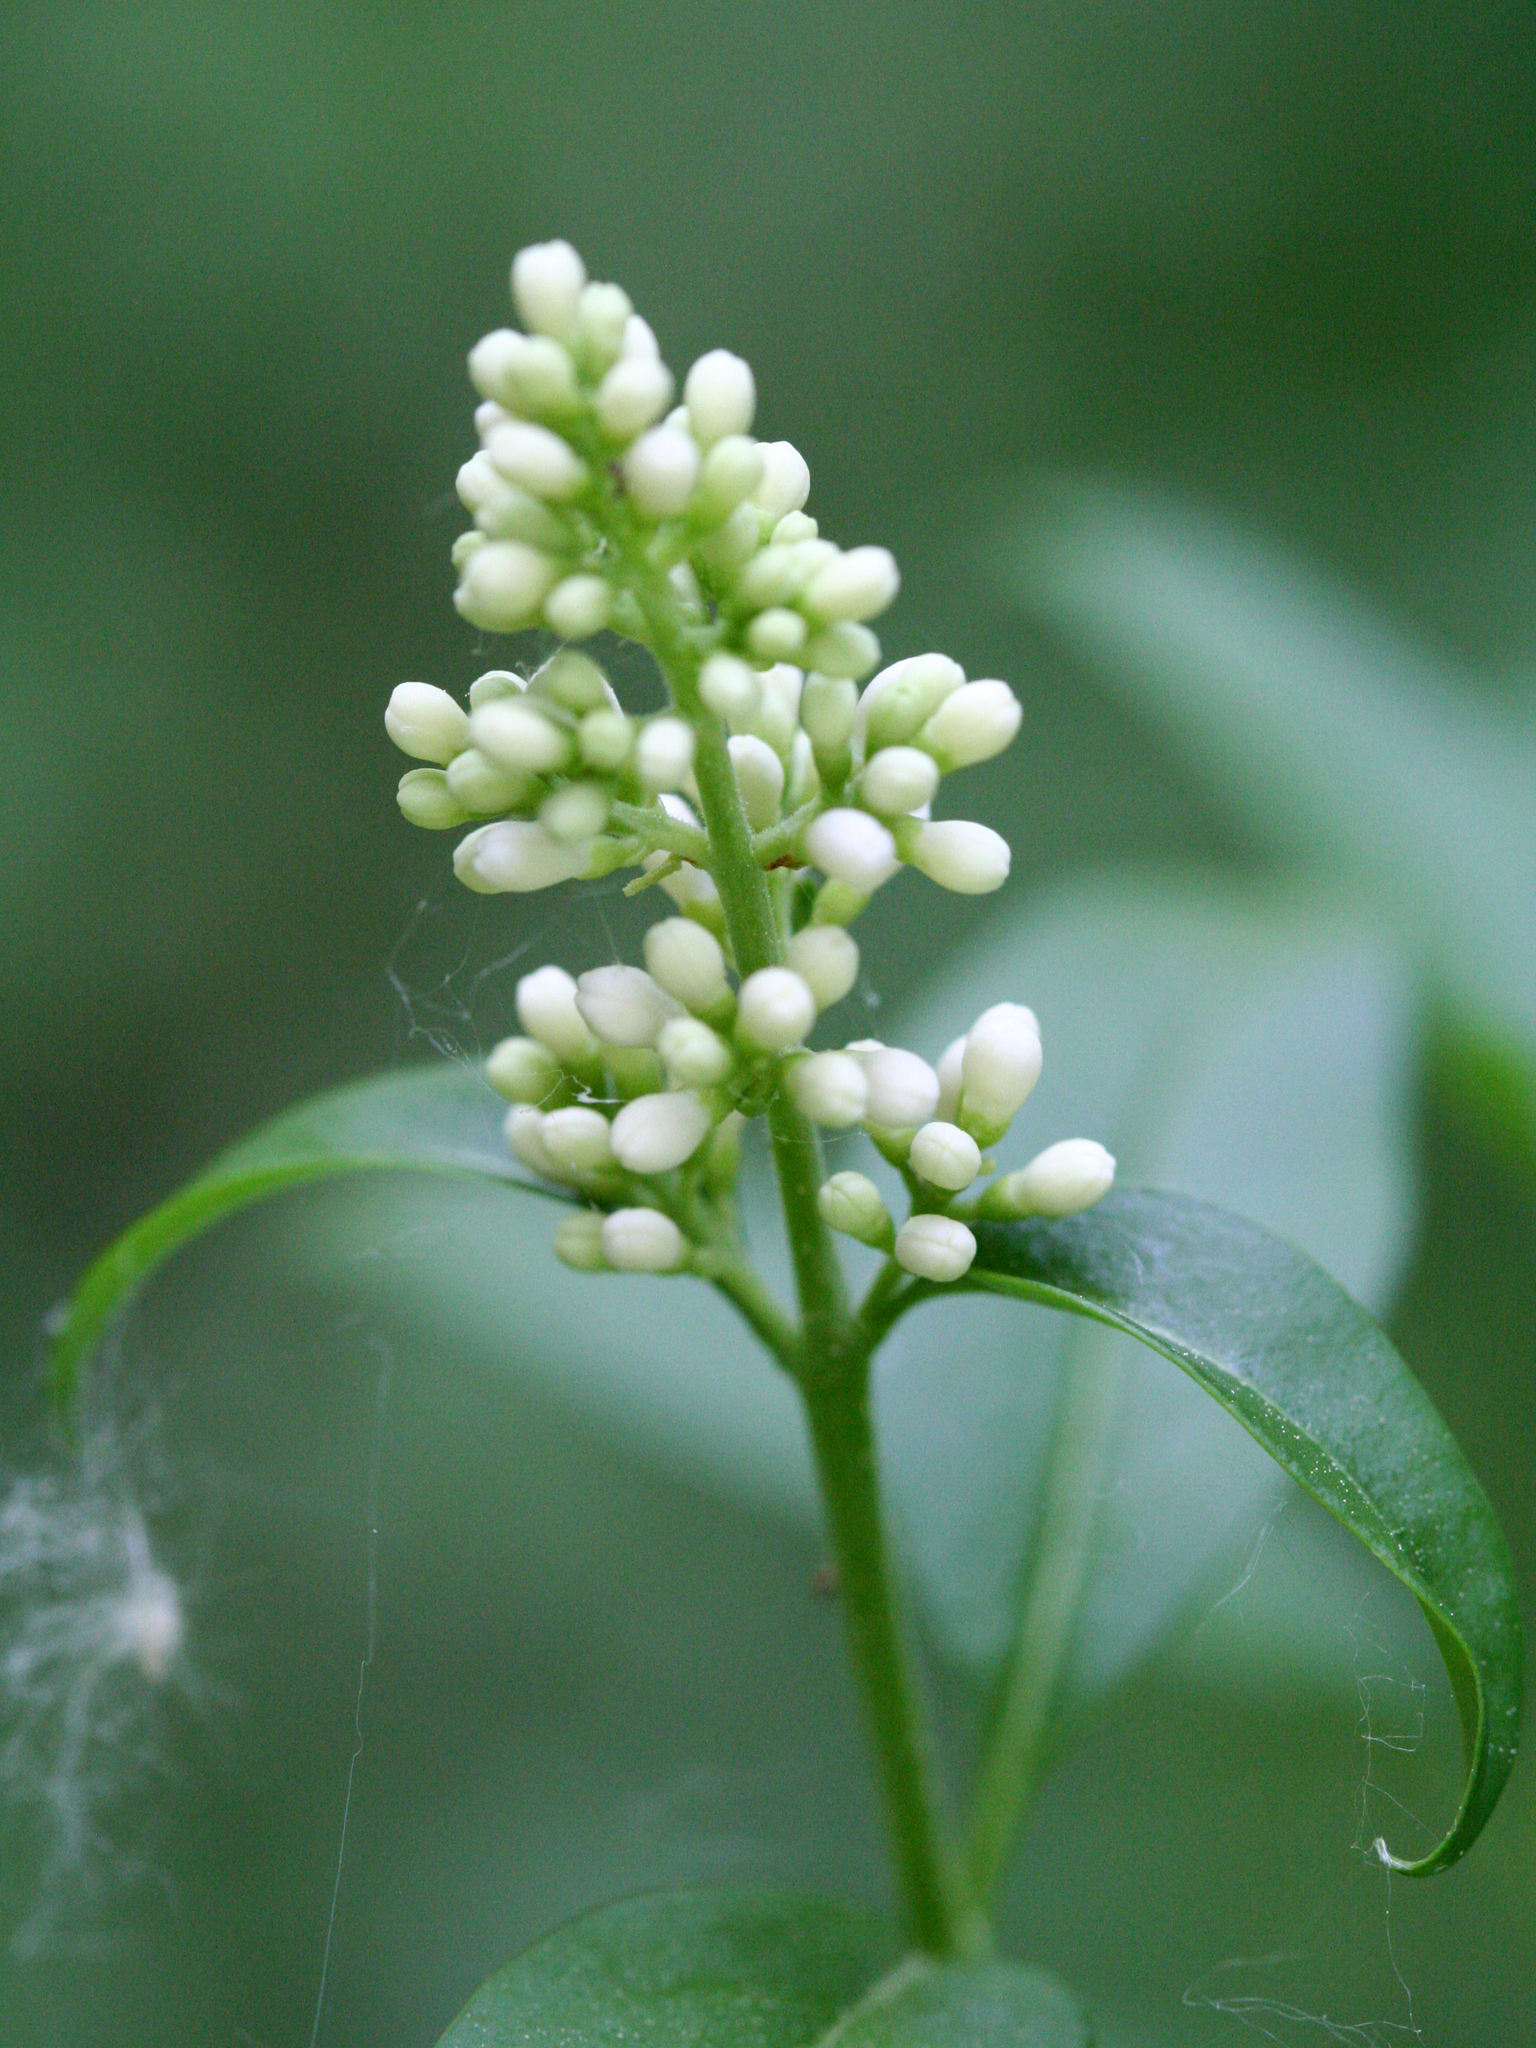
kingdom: Plantae
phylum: Tracheophyta
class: Magnoliopsida
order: Lamiales
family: Oleaceae
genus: Ligustrum
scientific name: Ligustrum vulgare
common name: Wild privet
